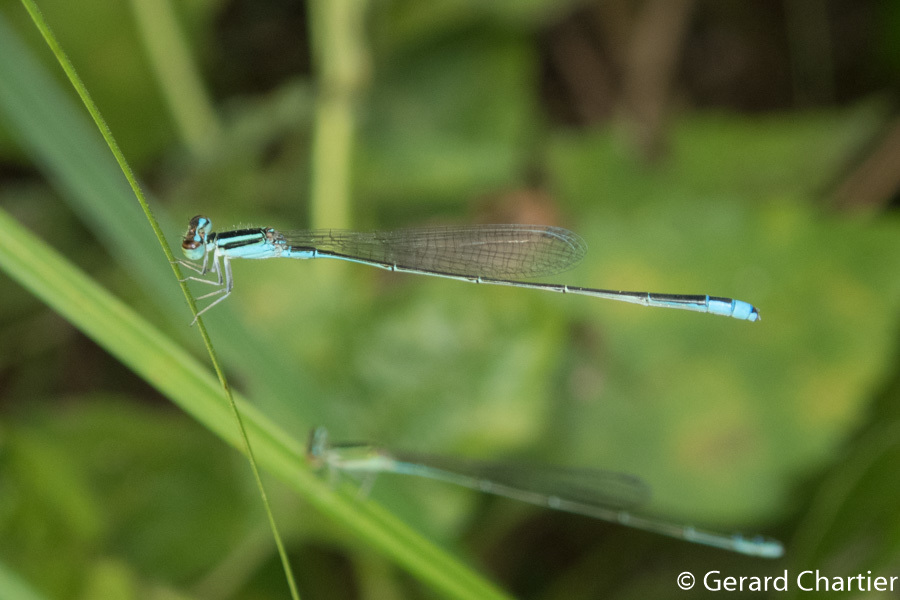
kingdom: Animalia
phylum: Arthropoda
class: Insecta
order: Odonata
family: Coenagrionidae
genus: Aciagrion
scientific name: Aciagrion borneense
